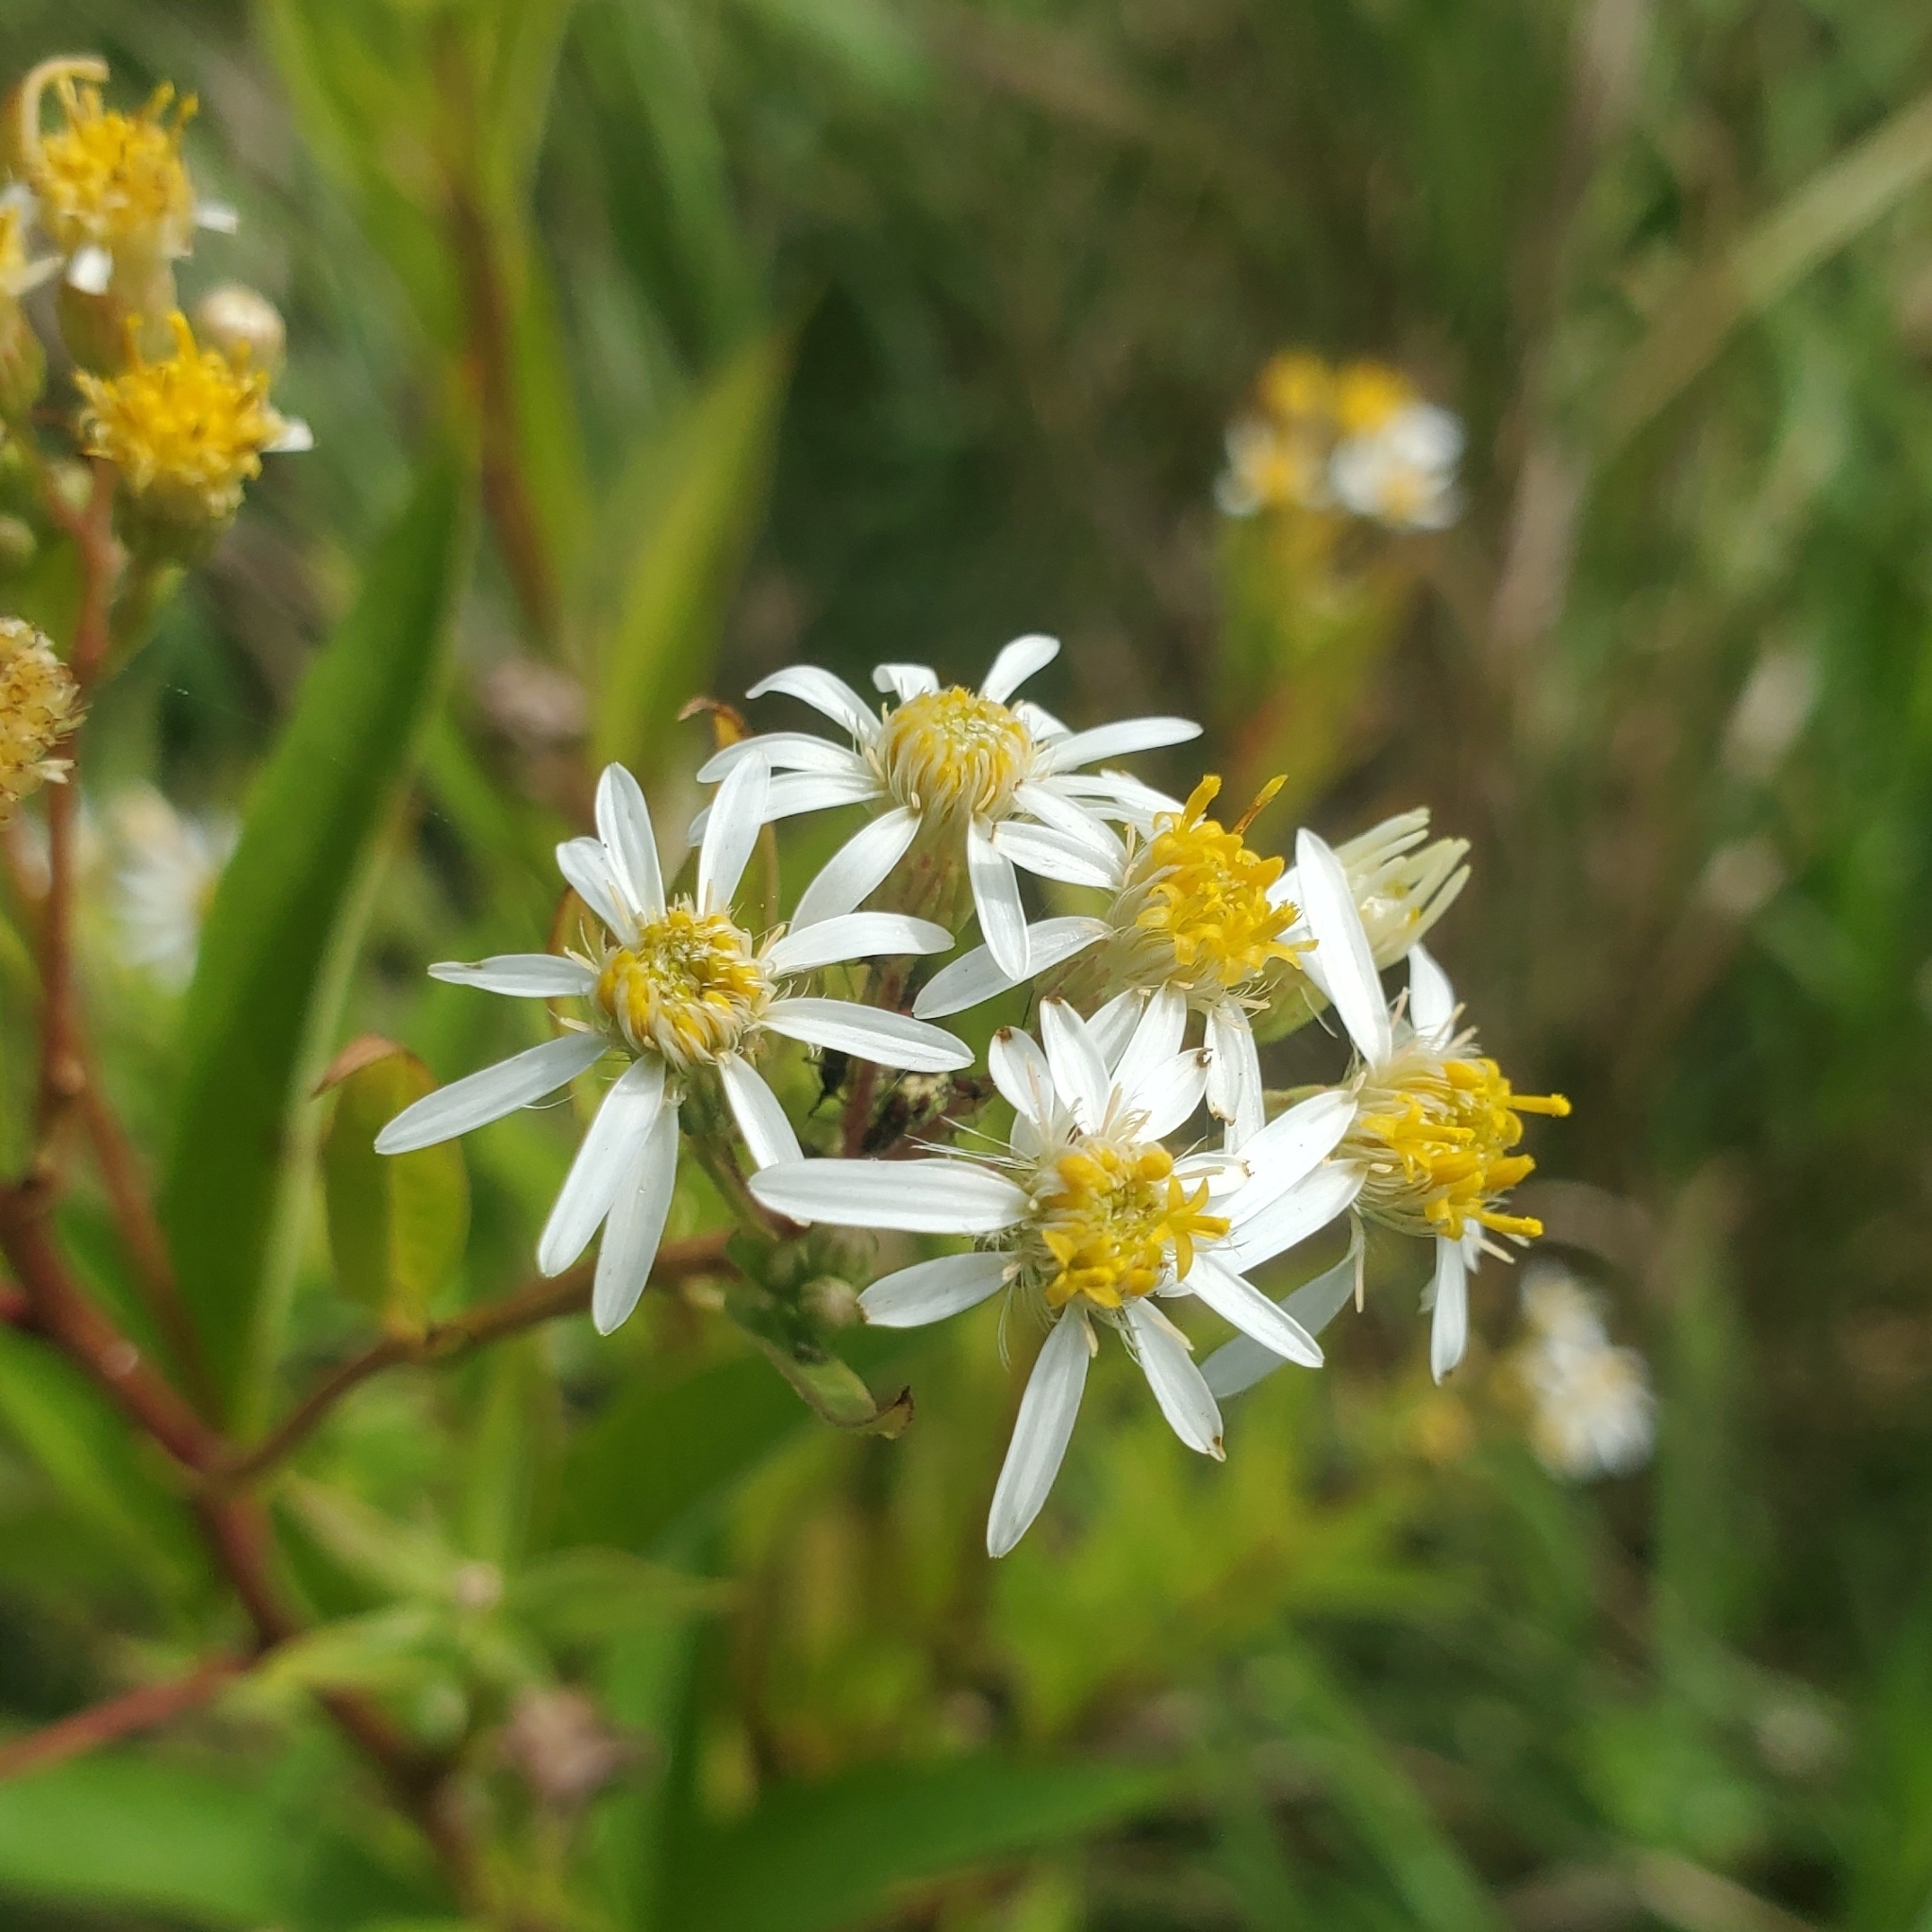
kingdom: Plantae
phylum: Tracheophyta
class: Magnoliopsida
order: Asterales
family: Asteraceae
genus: Doellingeria
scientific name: Doellingeria umbellata
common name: Flat-top white aster
